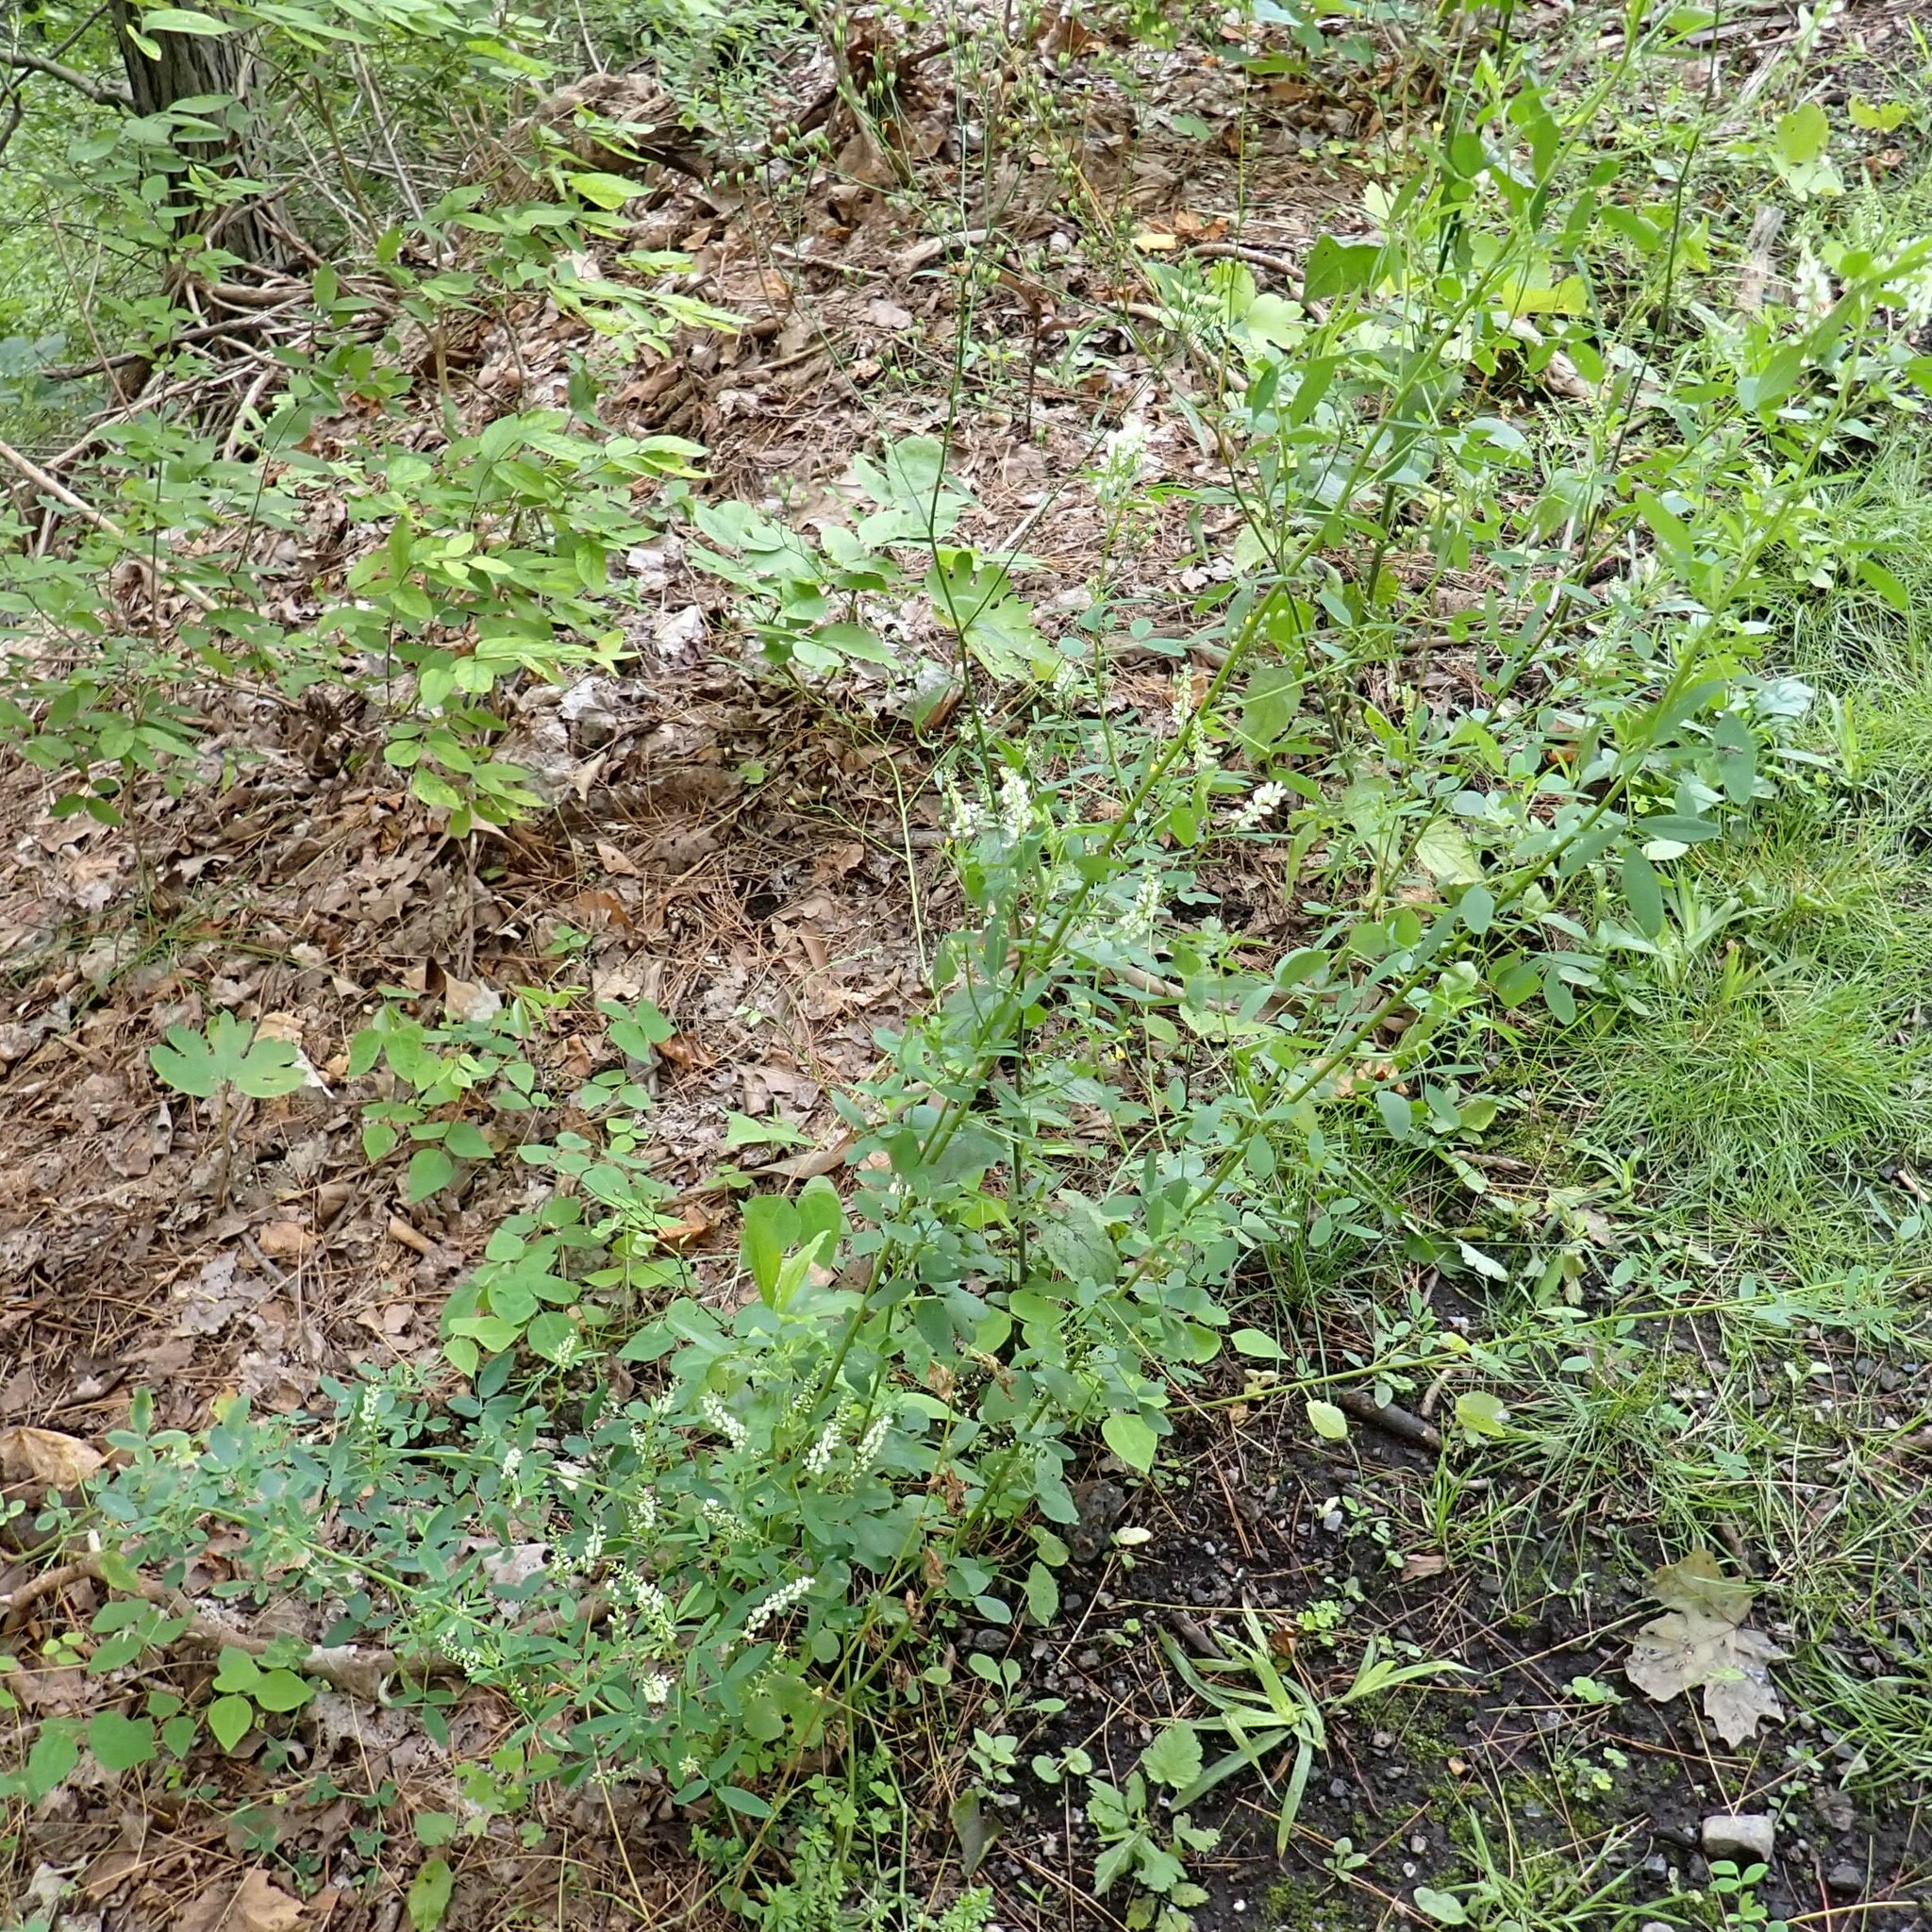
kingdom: Plantae
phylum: Tracheophyta
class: Magnoliopsida
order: Fabales
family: Fabaceae
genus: Melilotus
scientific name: Melilotus albus
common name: White melilot
